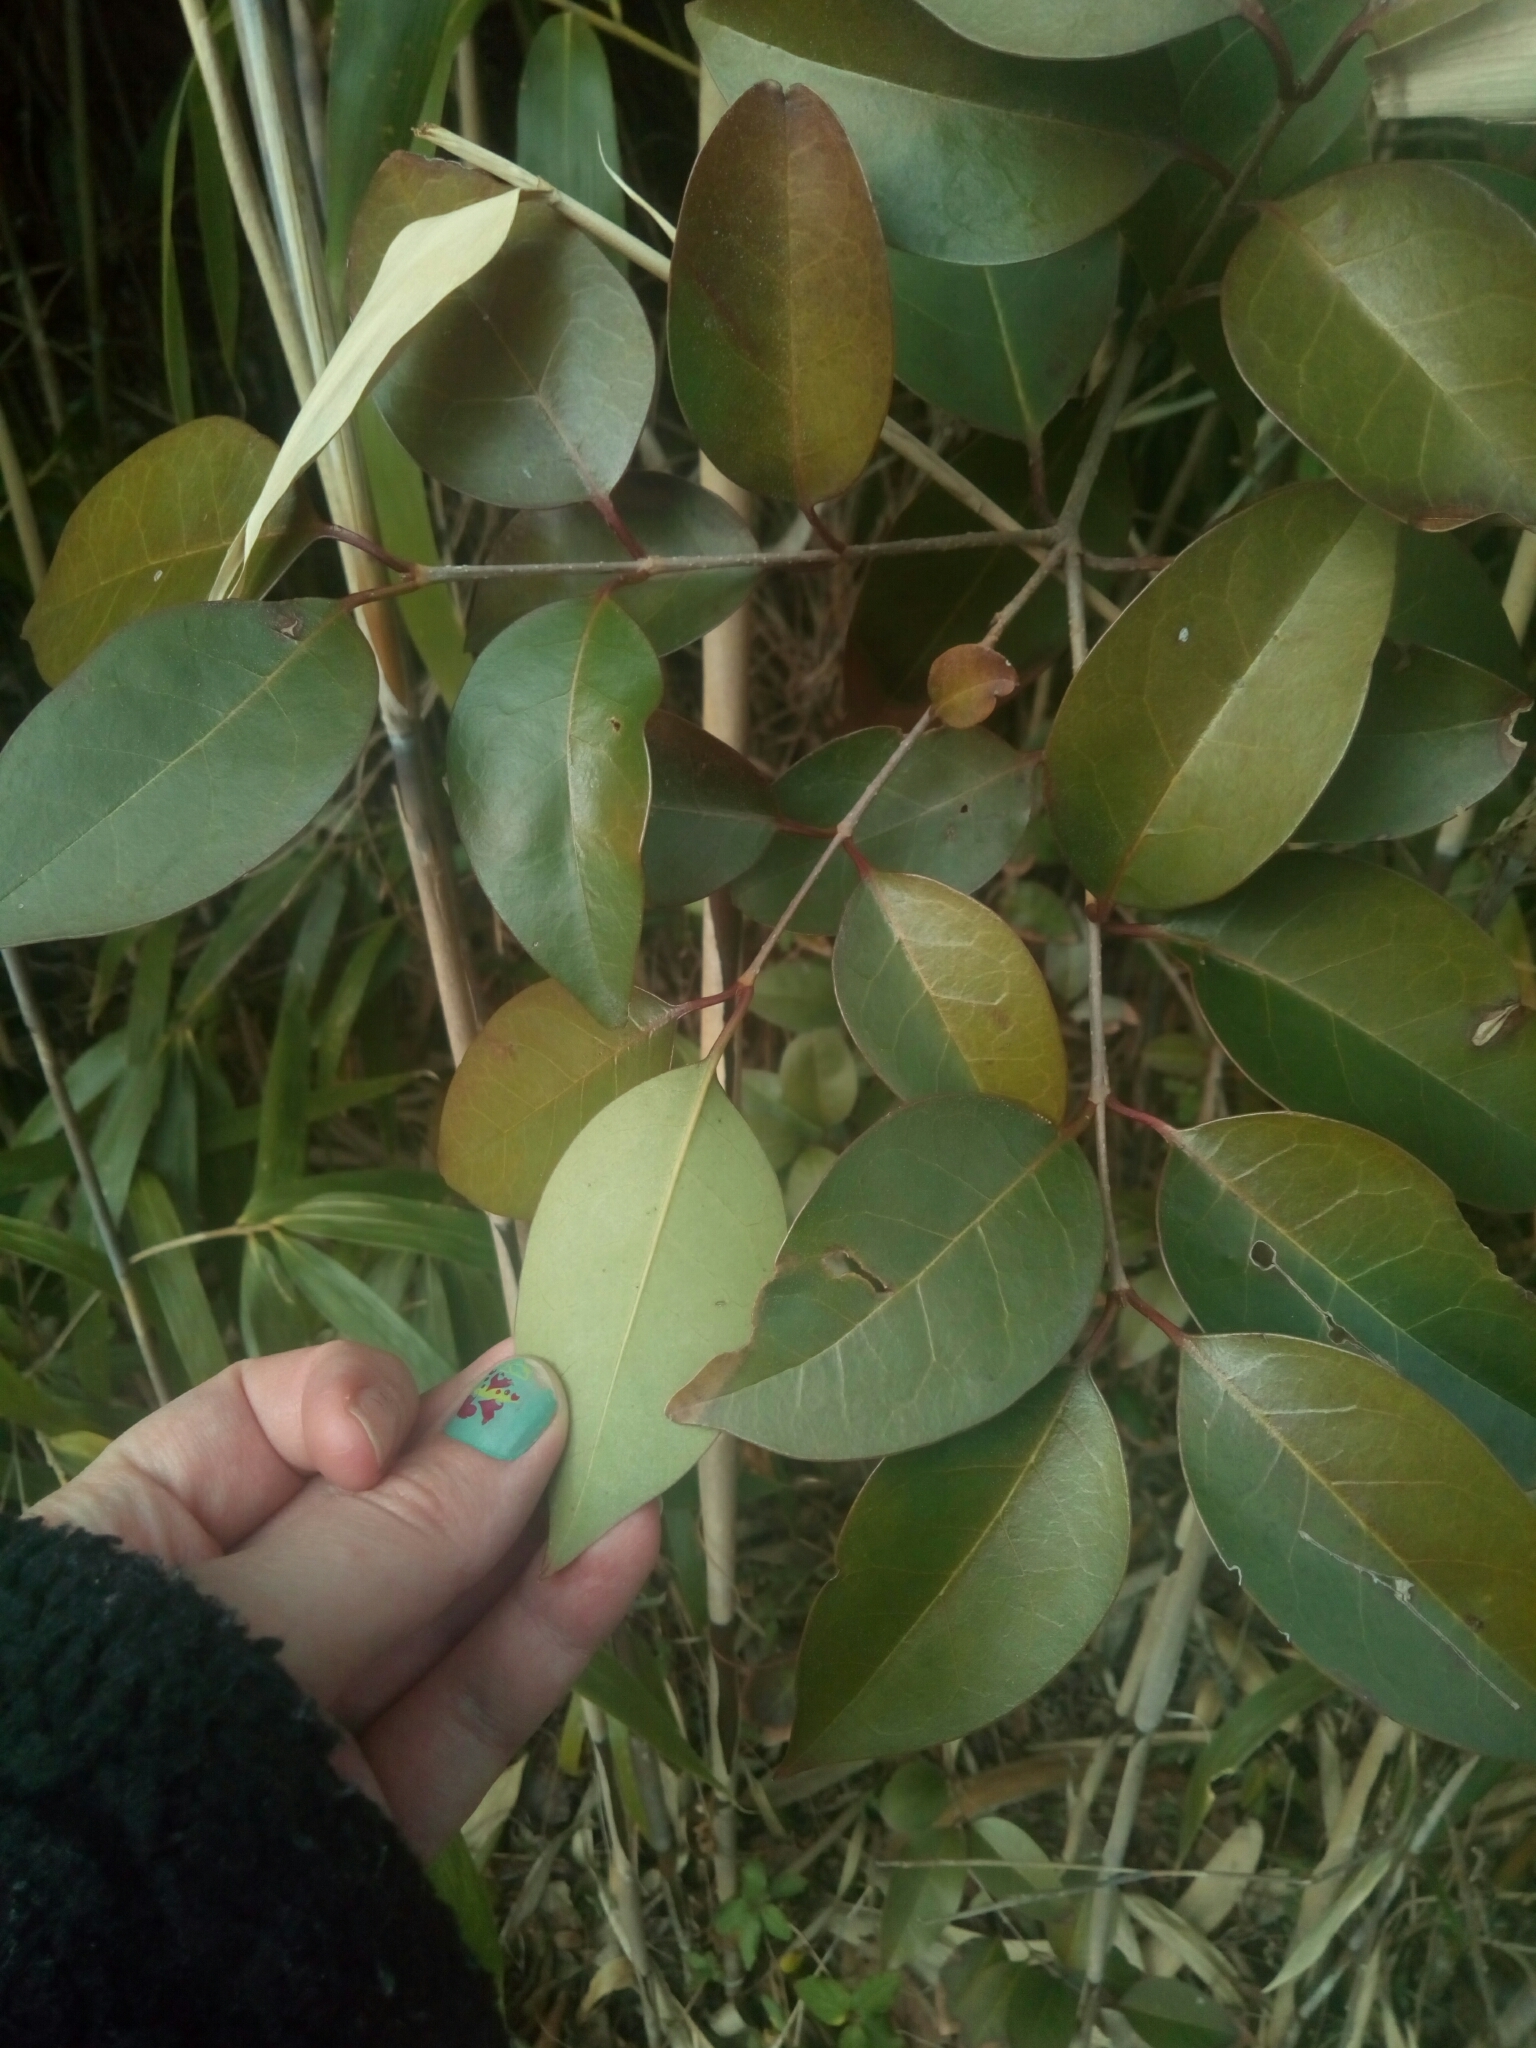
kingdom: Plantae
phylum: Tracheophyta
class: Magnoliopsida
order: Lamiales
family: Oleaceae
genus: Ligustrum
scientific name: Ligustrum lucidum
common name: Glossy privet
